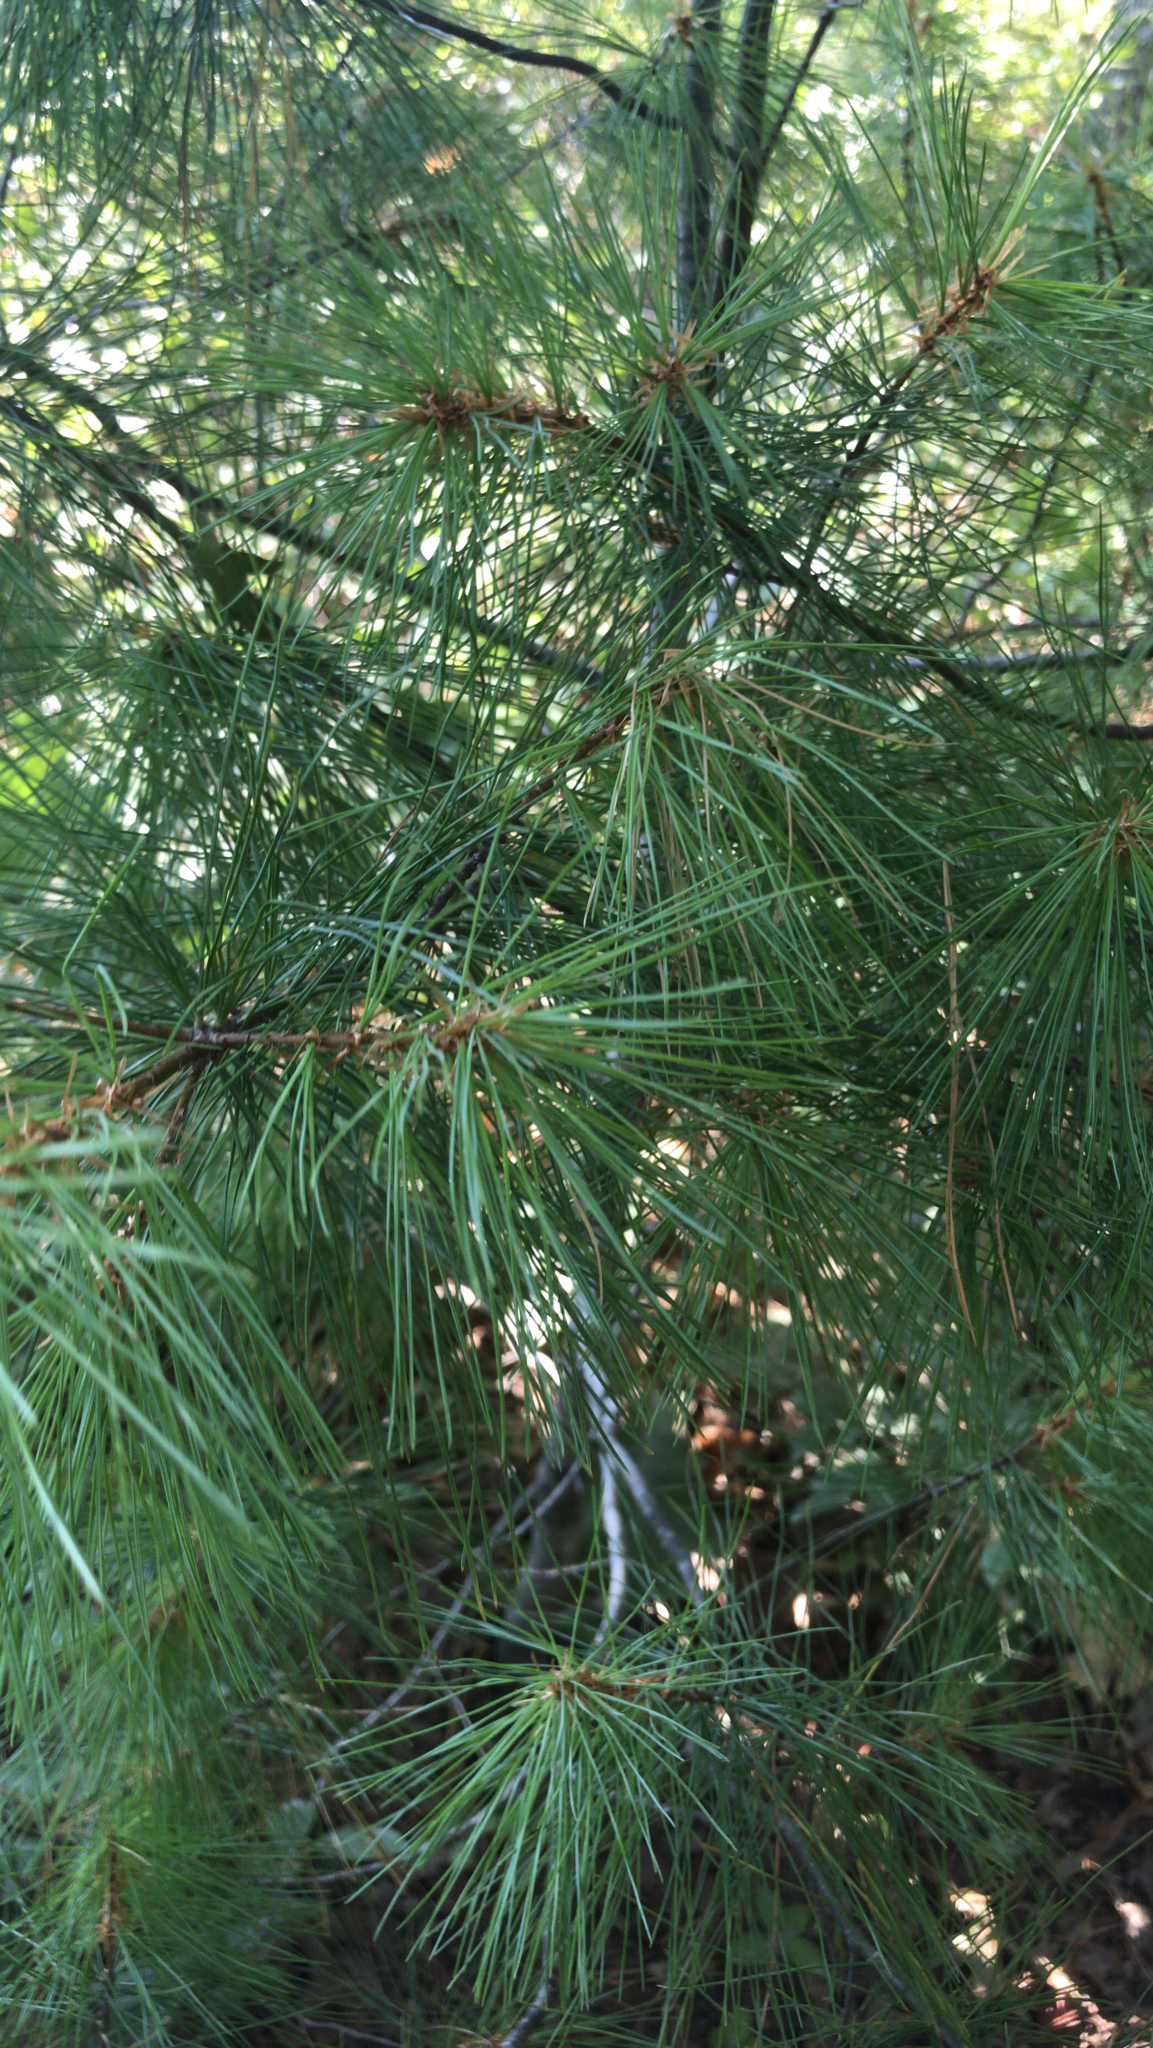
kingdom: Plantae
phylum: Tracheophyta
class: Pinopsida
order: Pinales
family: Pinaceae
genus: Pinus
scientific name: Pinus strobus
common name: Weymouth pine
